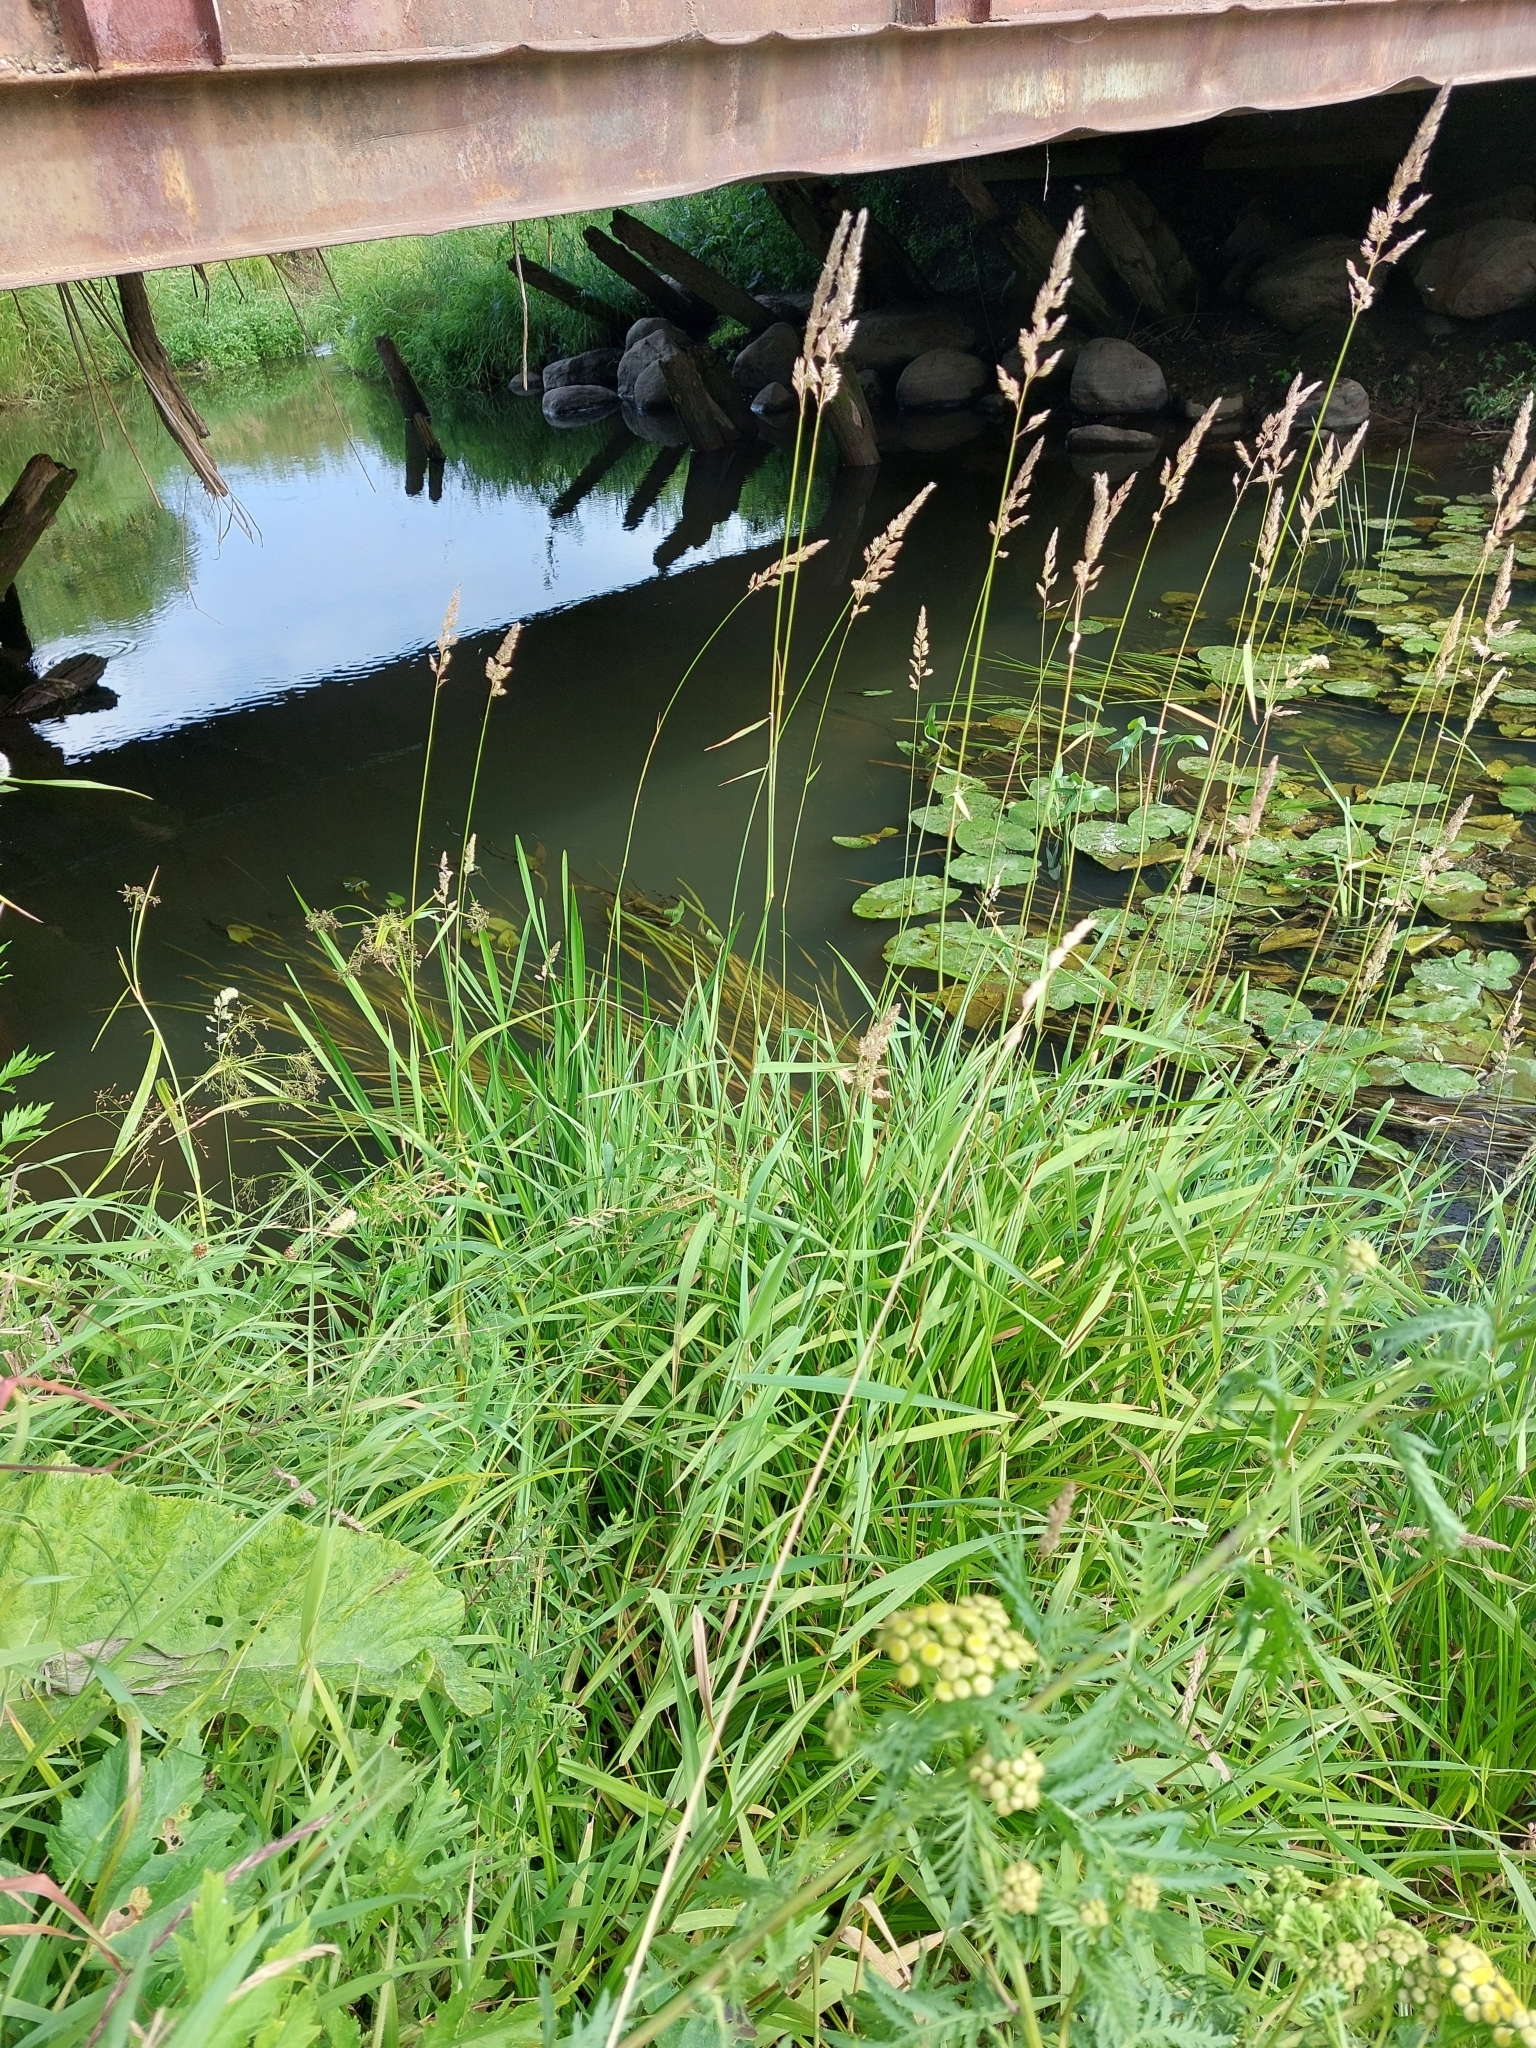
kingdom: Plantae
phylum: Tracheophyta
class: Liliopsida
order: Poales
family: Poaceae
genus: Phalaris
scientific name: Phalaris arundinacea
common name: Reed canary-grass
